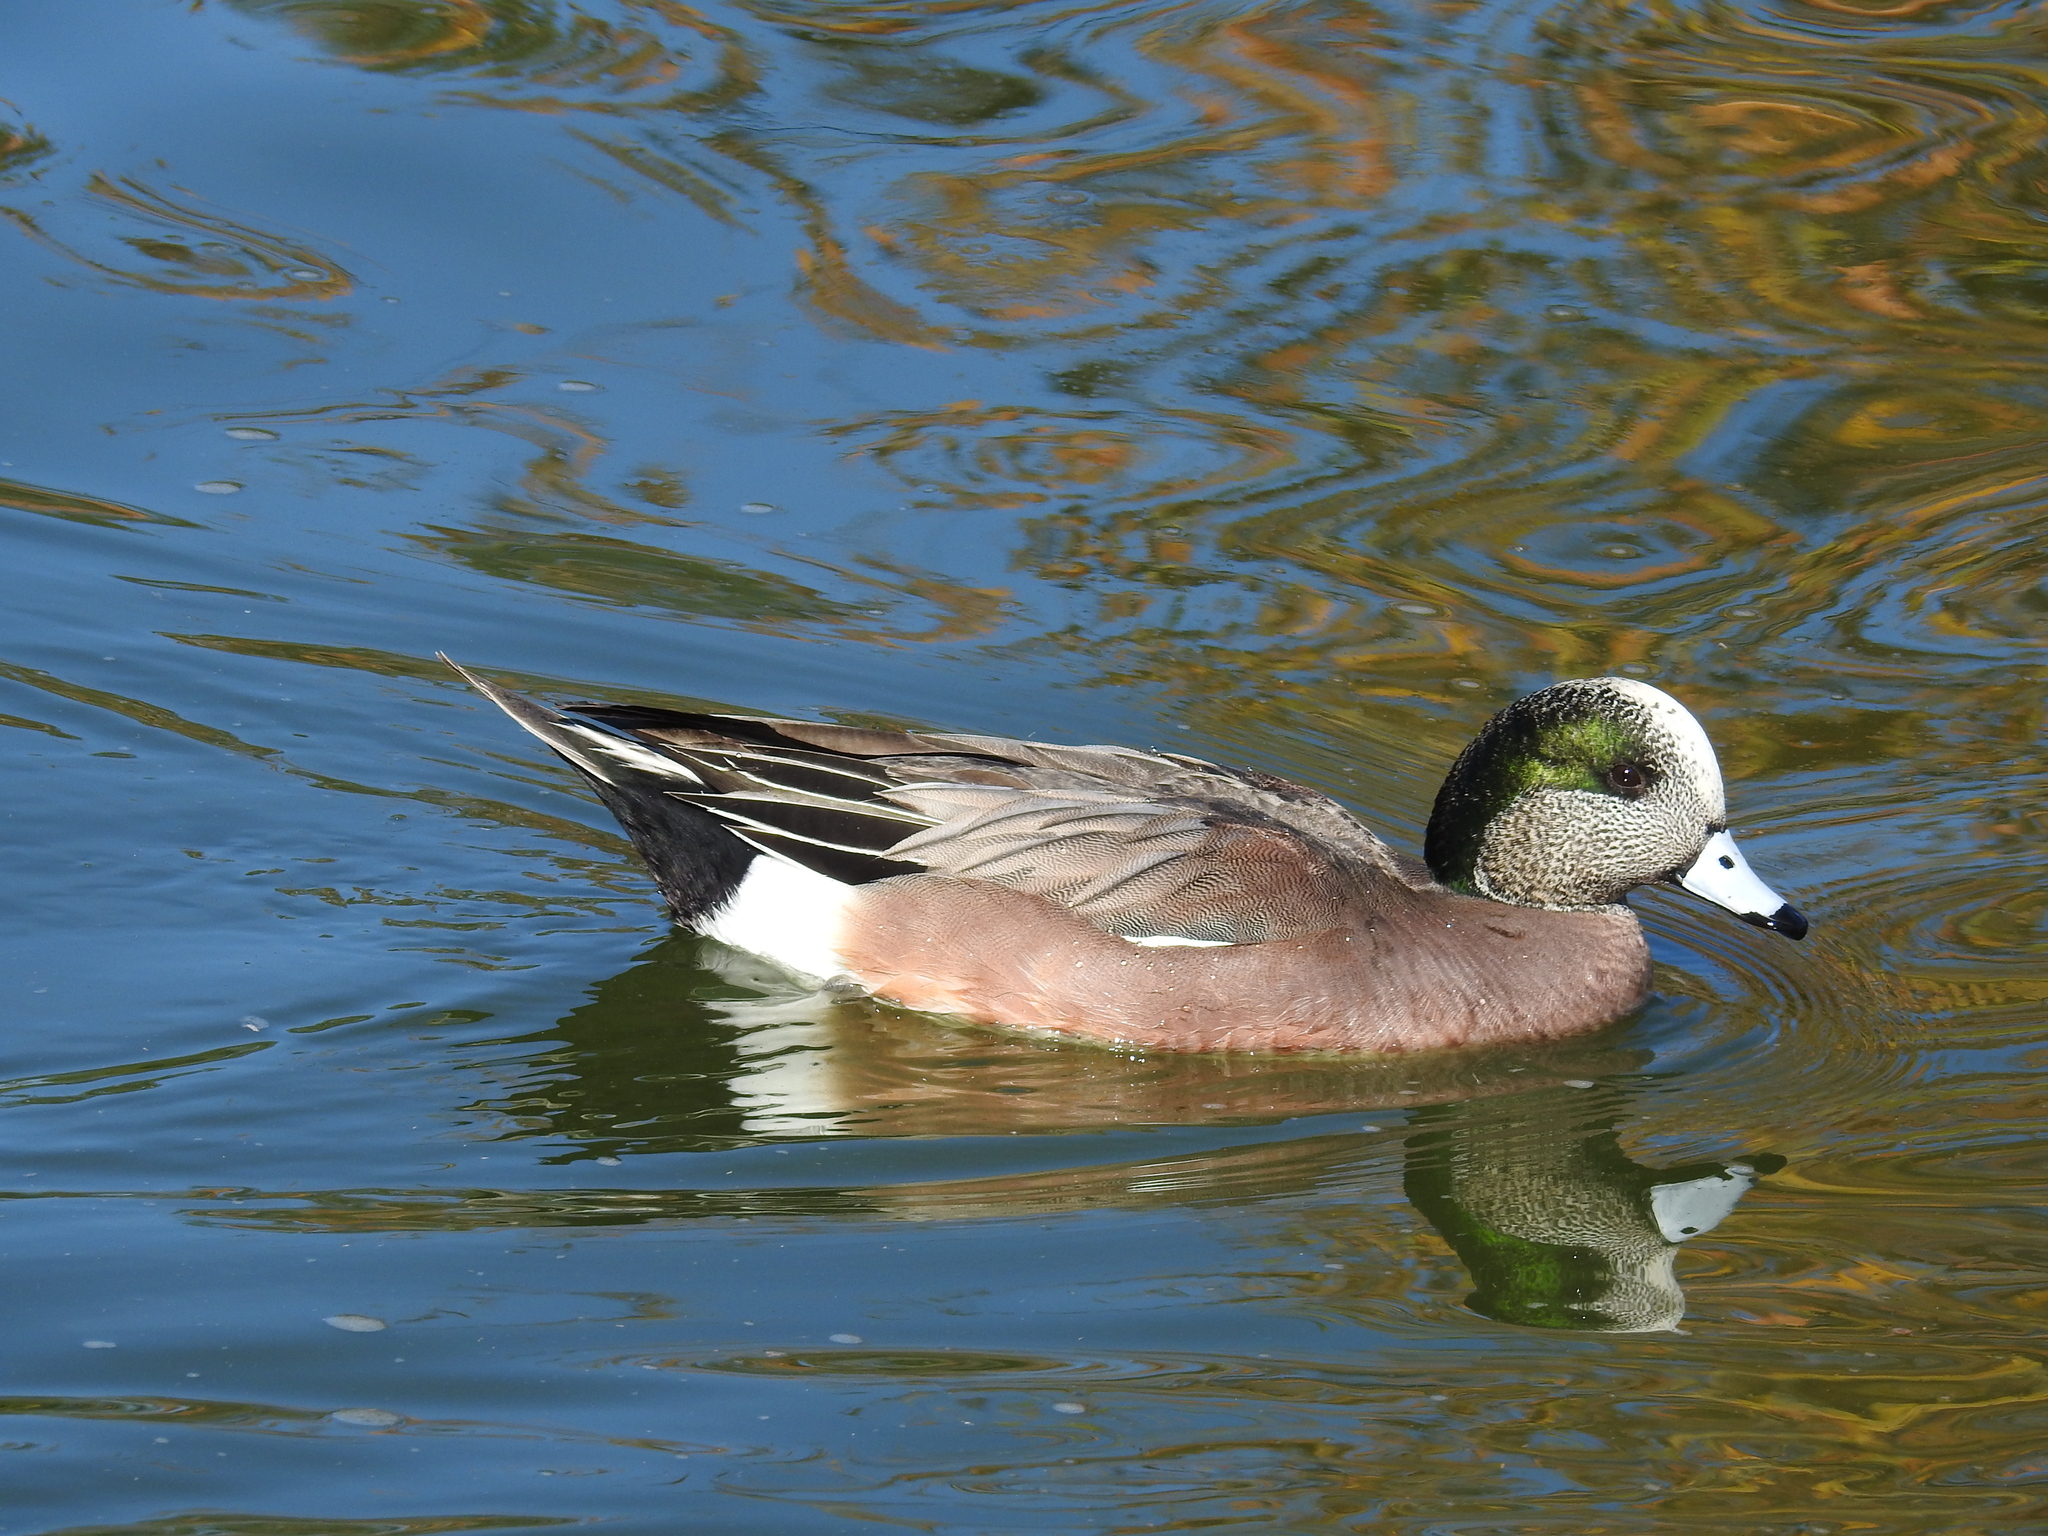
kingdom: Animalia
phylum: Chordata
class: Aves
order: Anseriformes
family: Anatidae
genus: Mareca
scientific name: Mareca americana
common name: American wigeon
